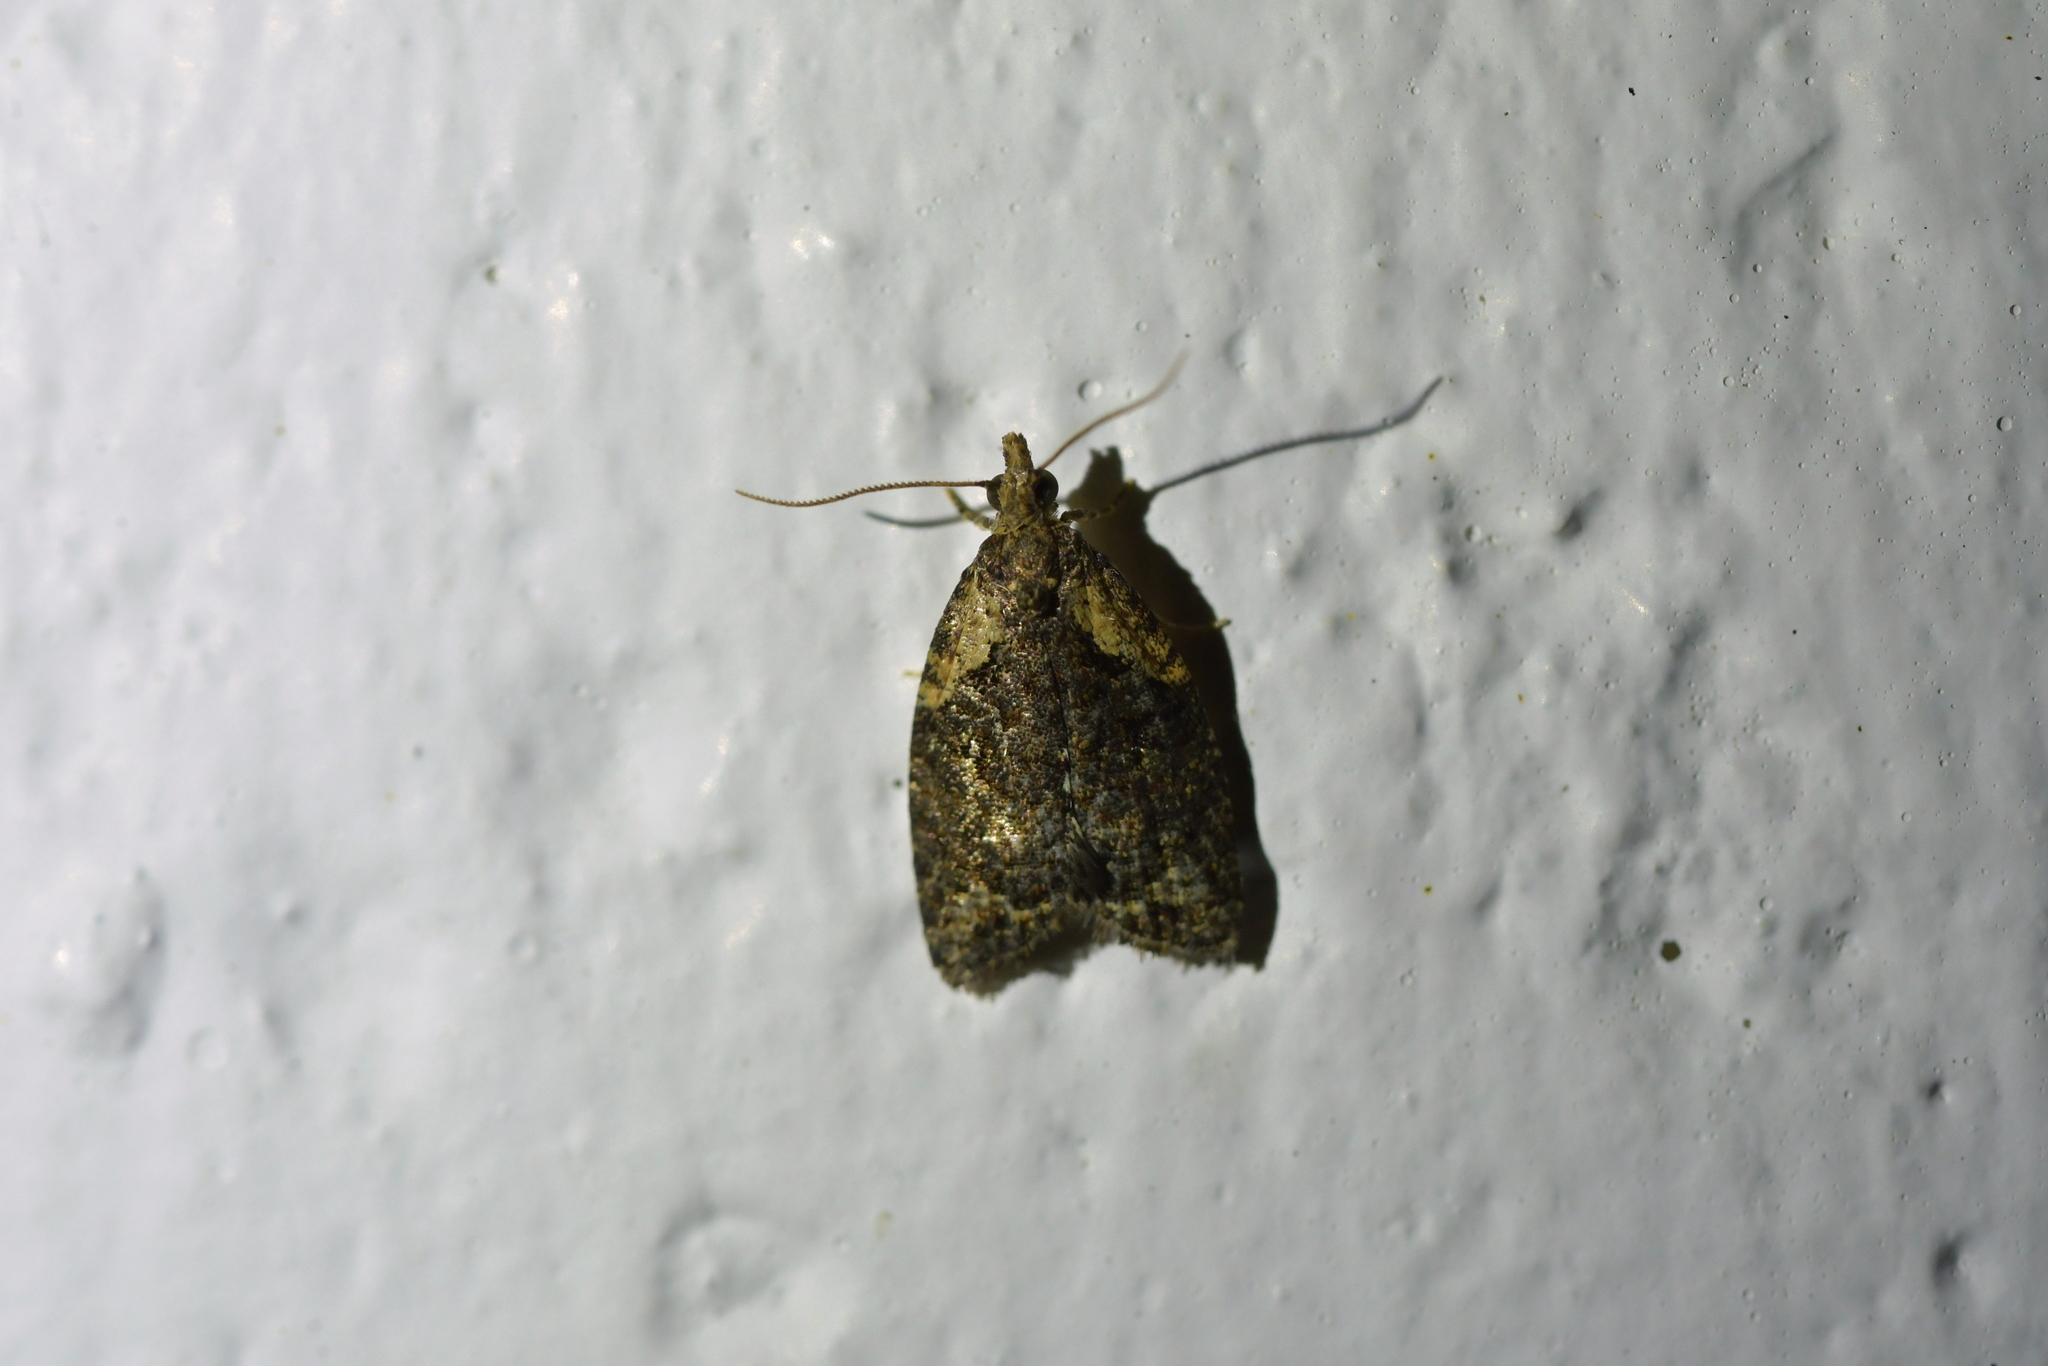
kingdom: Animalia
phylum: Arthropoda
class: Insecta
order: Lepidoptera
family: Tortricidae
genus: Capua
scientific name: Capua intractana
